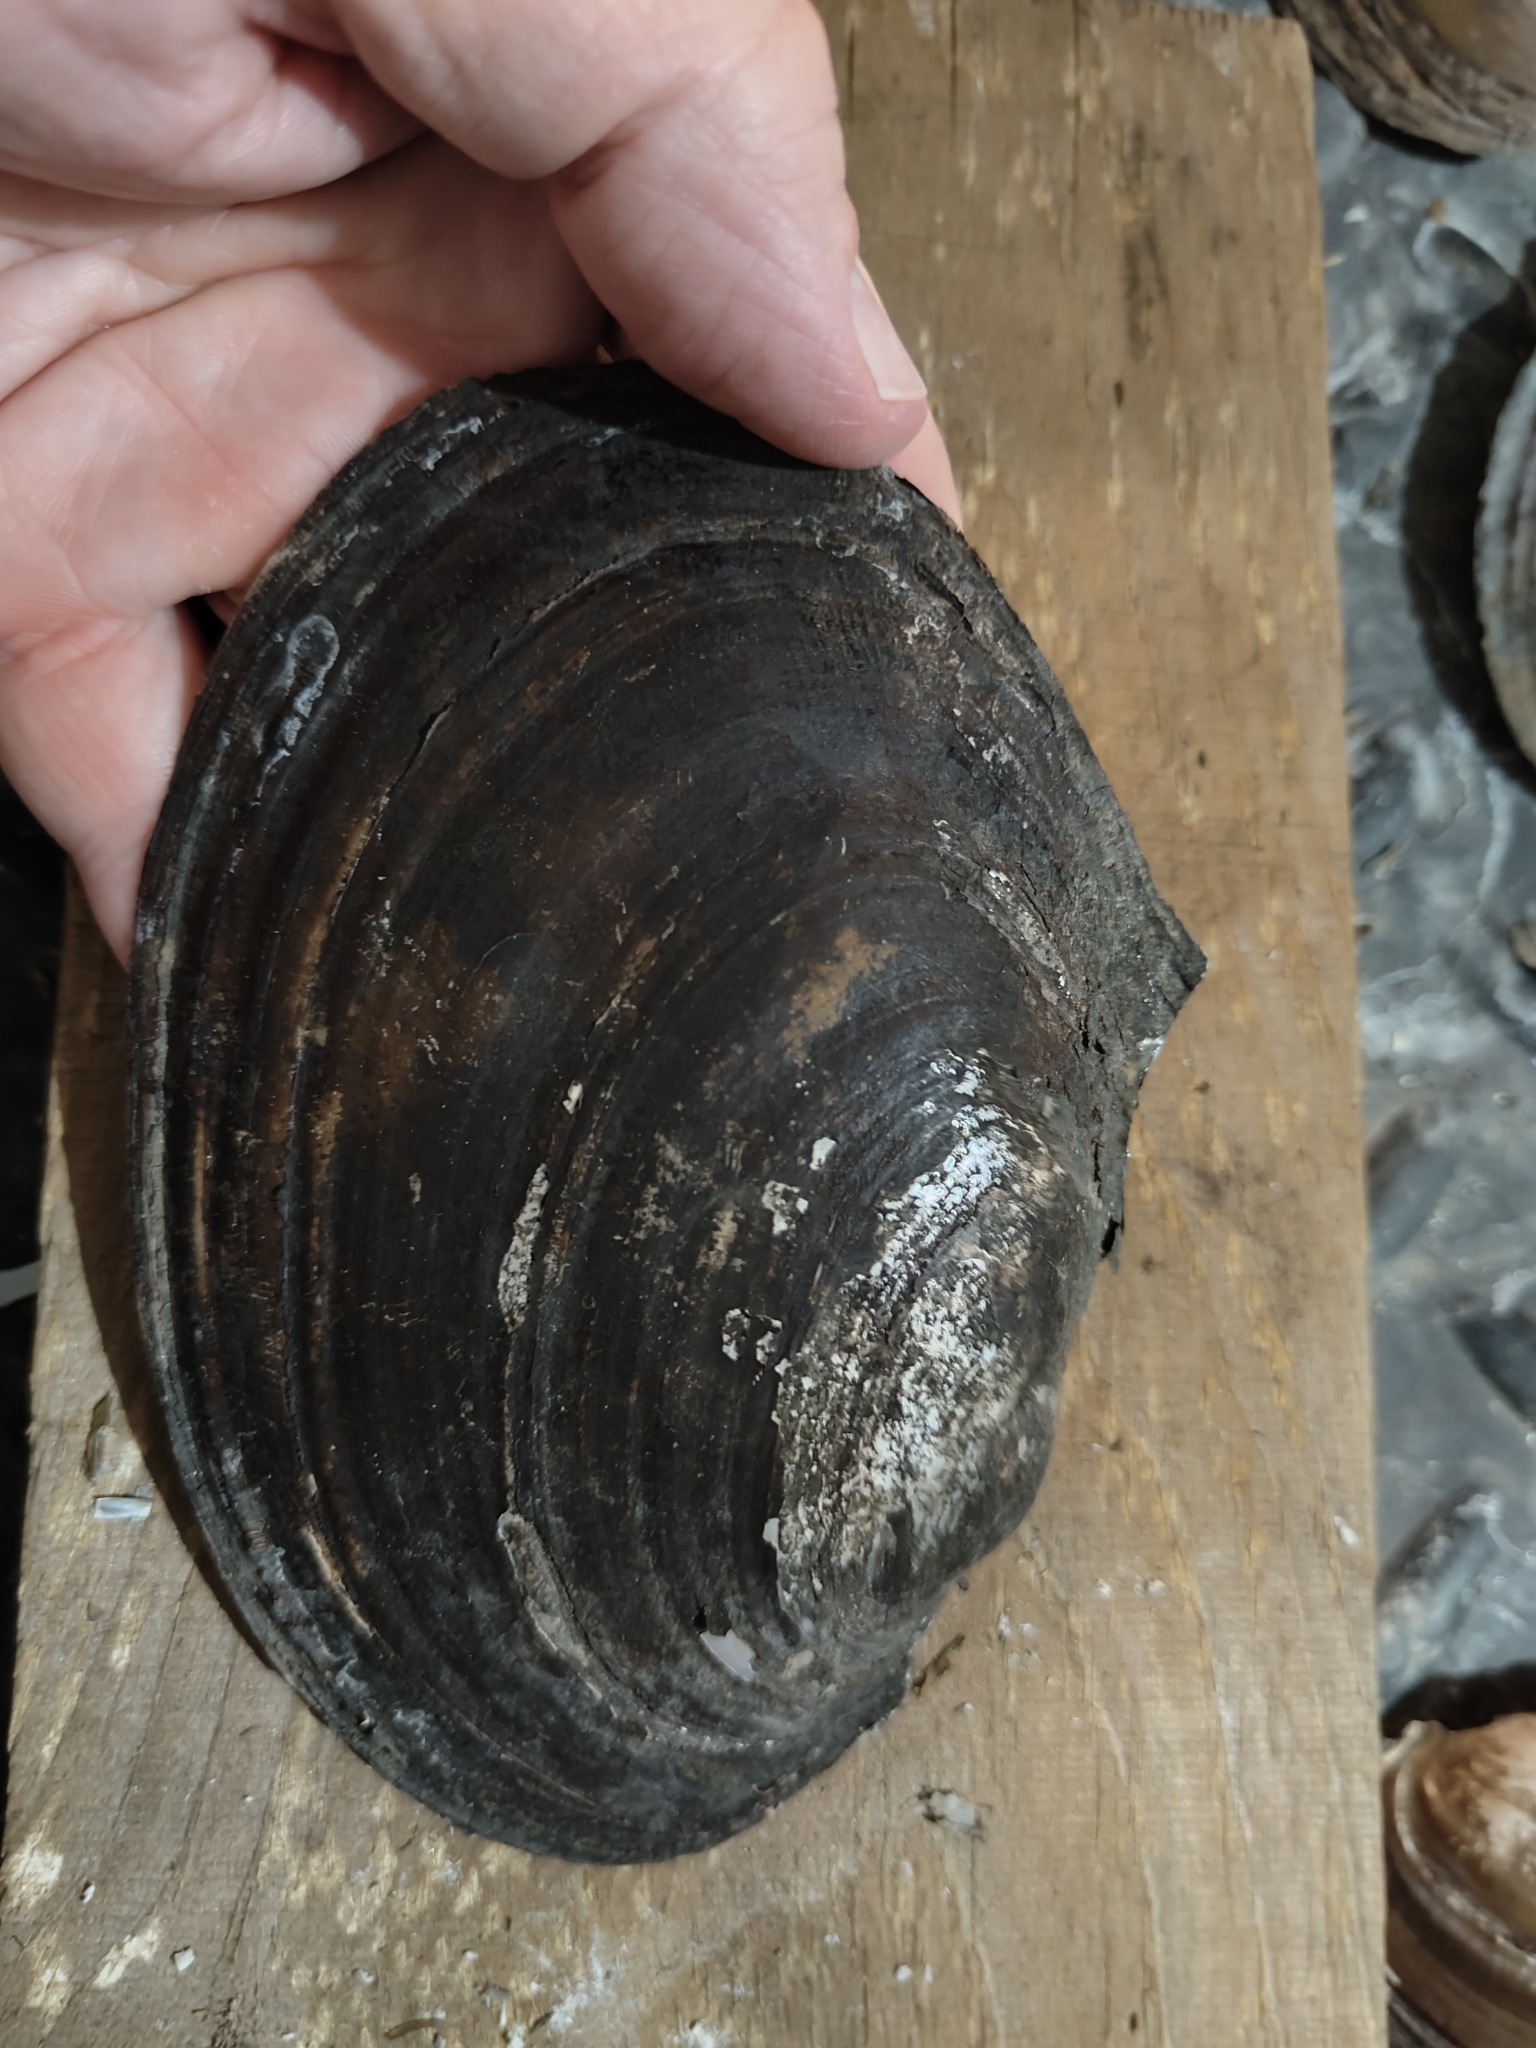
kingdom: Animalia
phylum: Mollusca
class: Bivalvia
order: Unionida
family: Unionidae
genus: Potamilus
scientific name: Potamilus ohiensis
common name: Pink papershell
